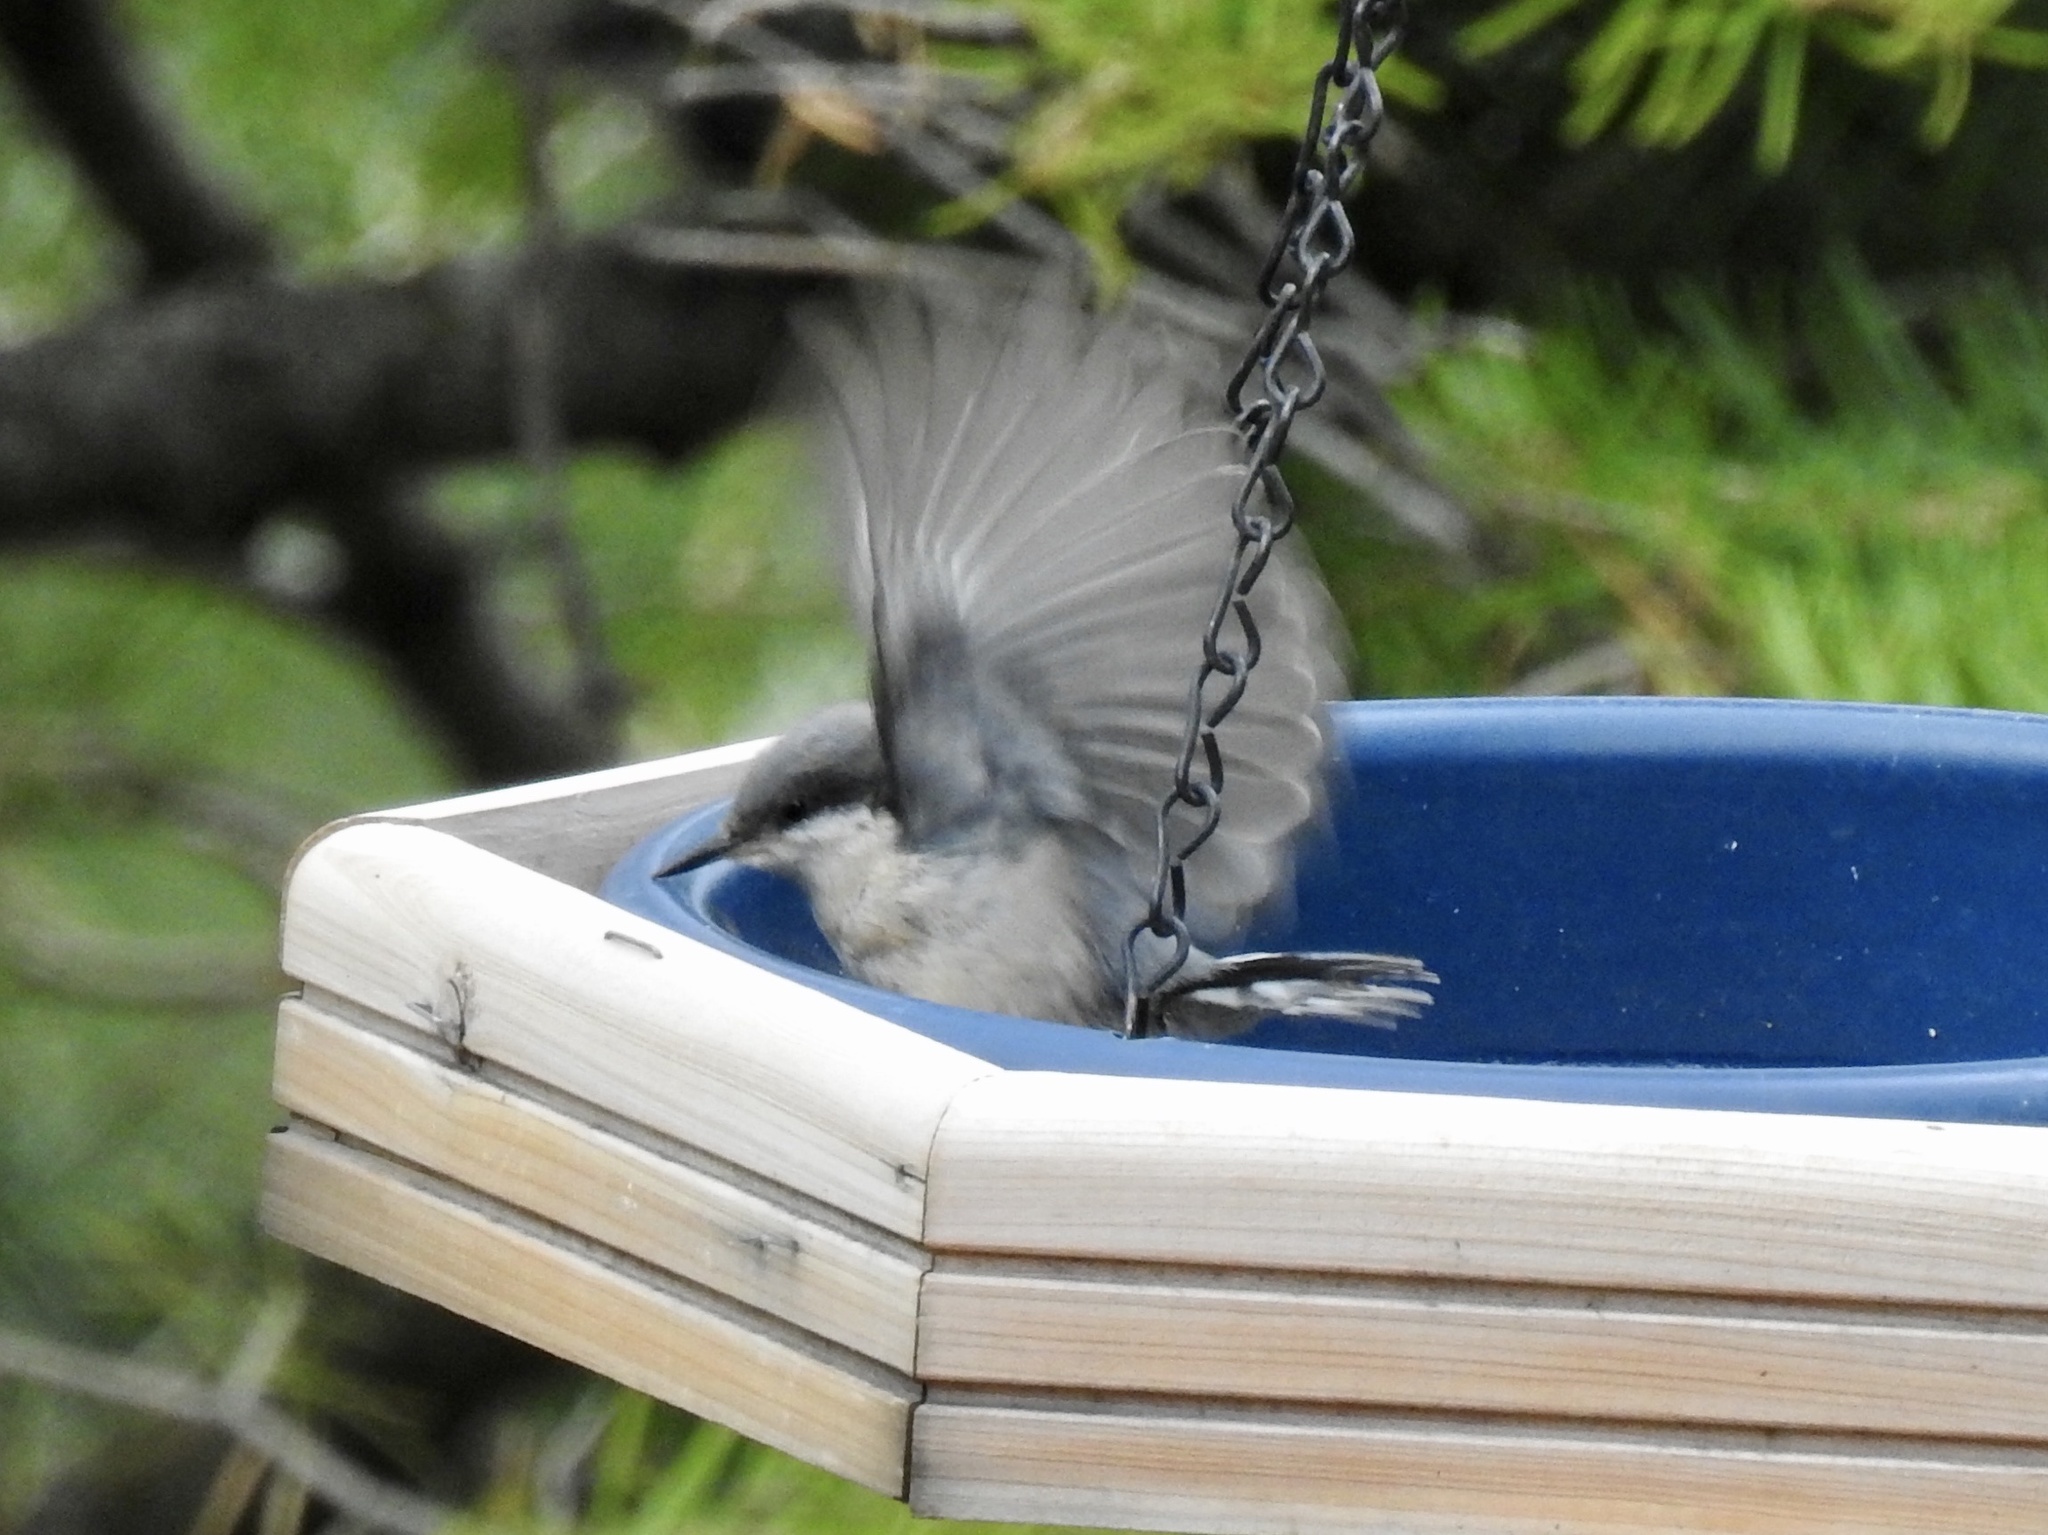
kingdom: Animalia
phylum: Chordata
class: Aves
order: Passeriformes
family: Sittidae
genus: Sitta
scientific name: Sitta pygmaea
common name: Pygmy nuthatch
